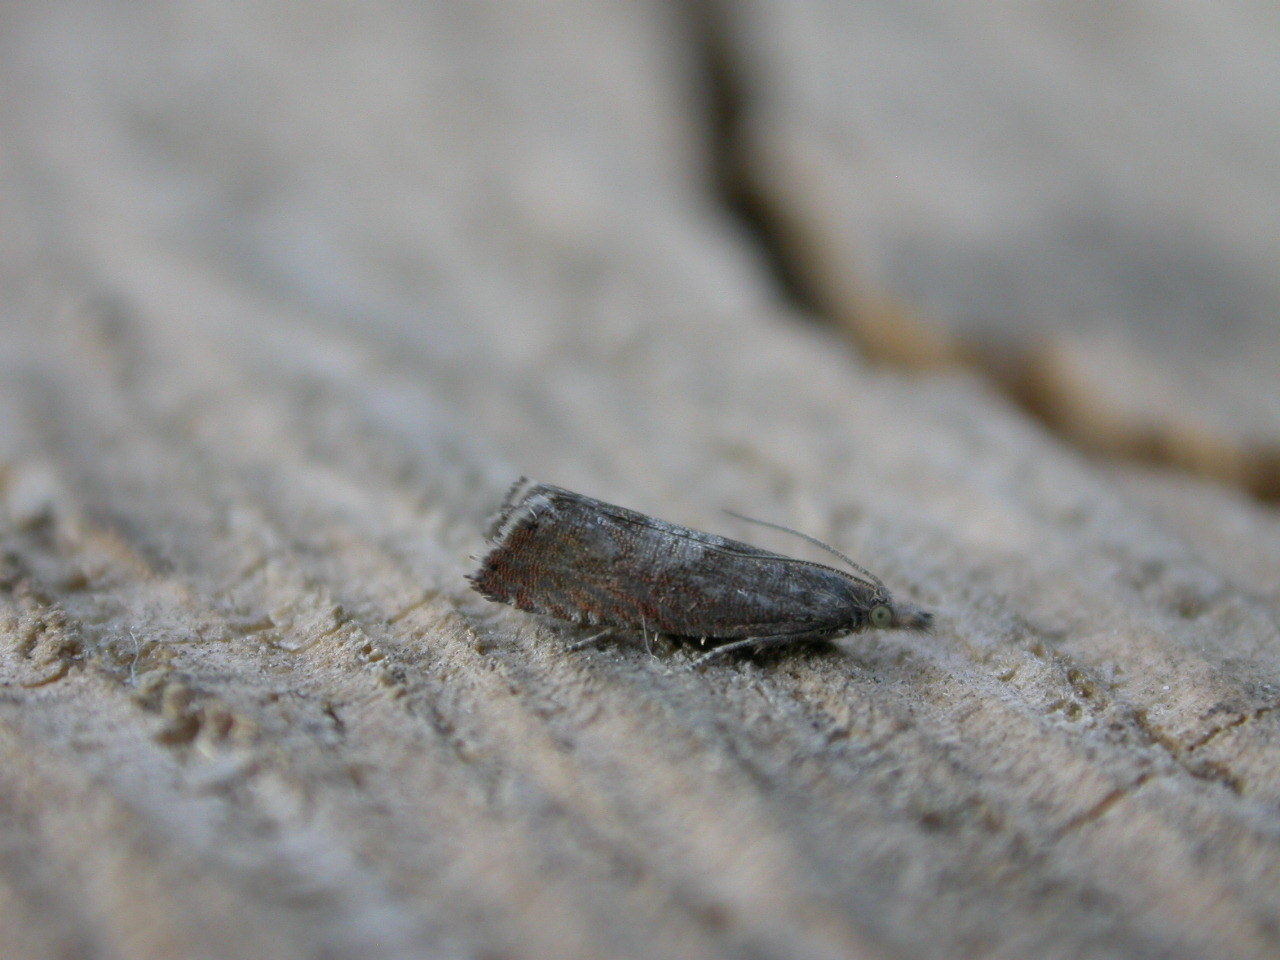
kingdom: Animalia
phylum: Arthropoda
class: Insecta
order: Lepidoptera
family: Tortricidae
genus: Dichrorampha
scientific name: Dichrorampha acuminatana
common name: Sharp-winged drill
